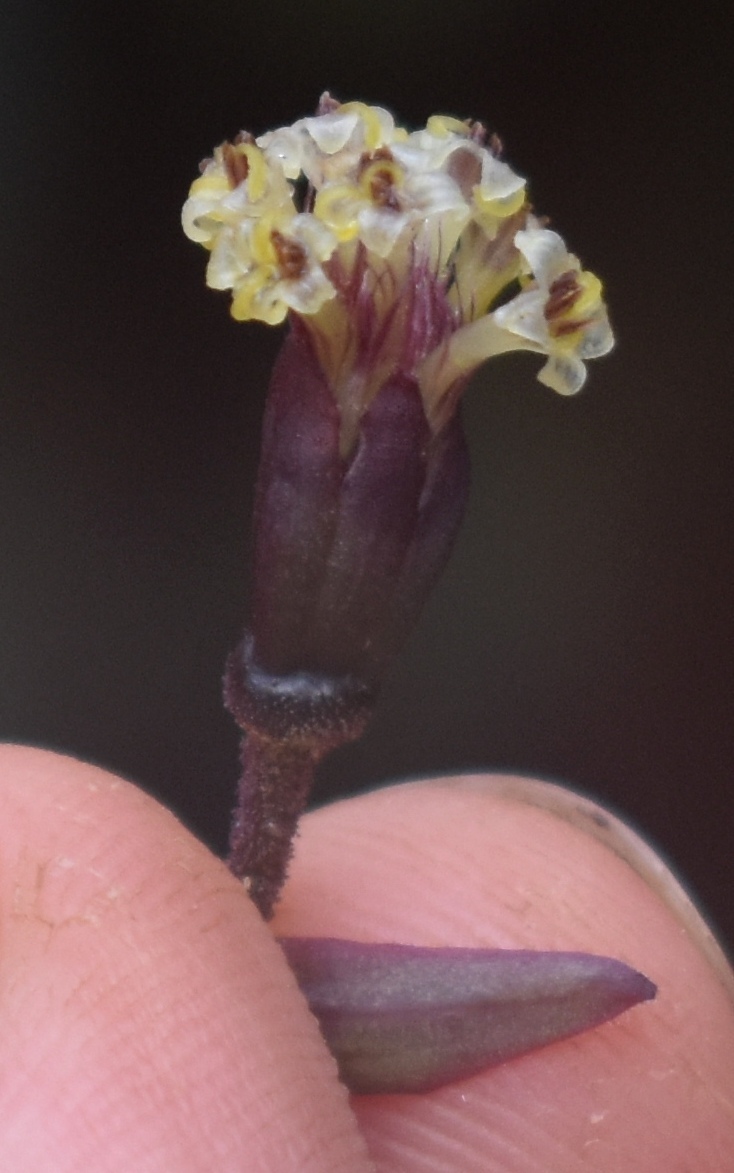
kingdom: Plantae
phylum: Tracheophyta
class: Magnoliopsida
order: Asterales
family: Asteraceae
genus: Dubautia
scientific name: Dubautia raillardioides
